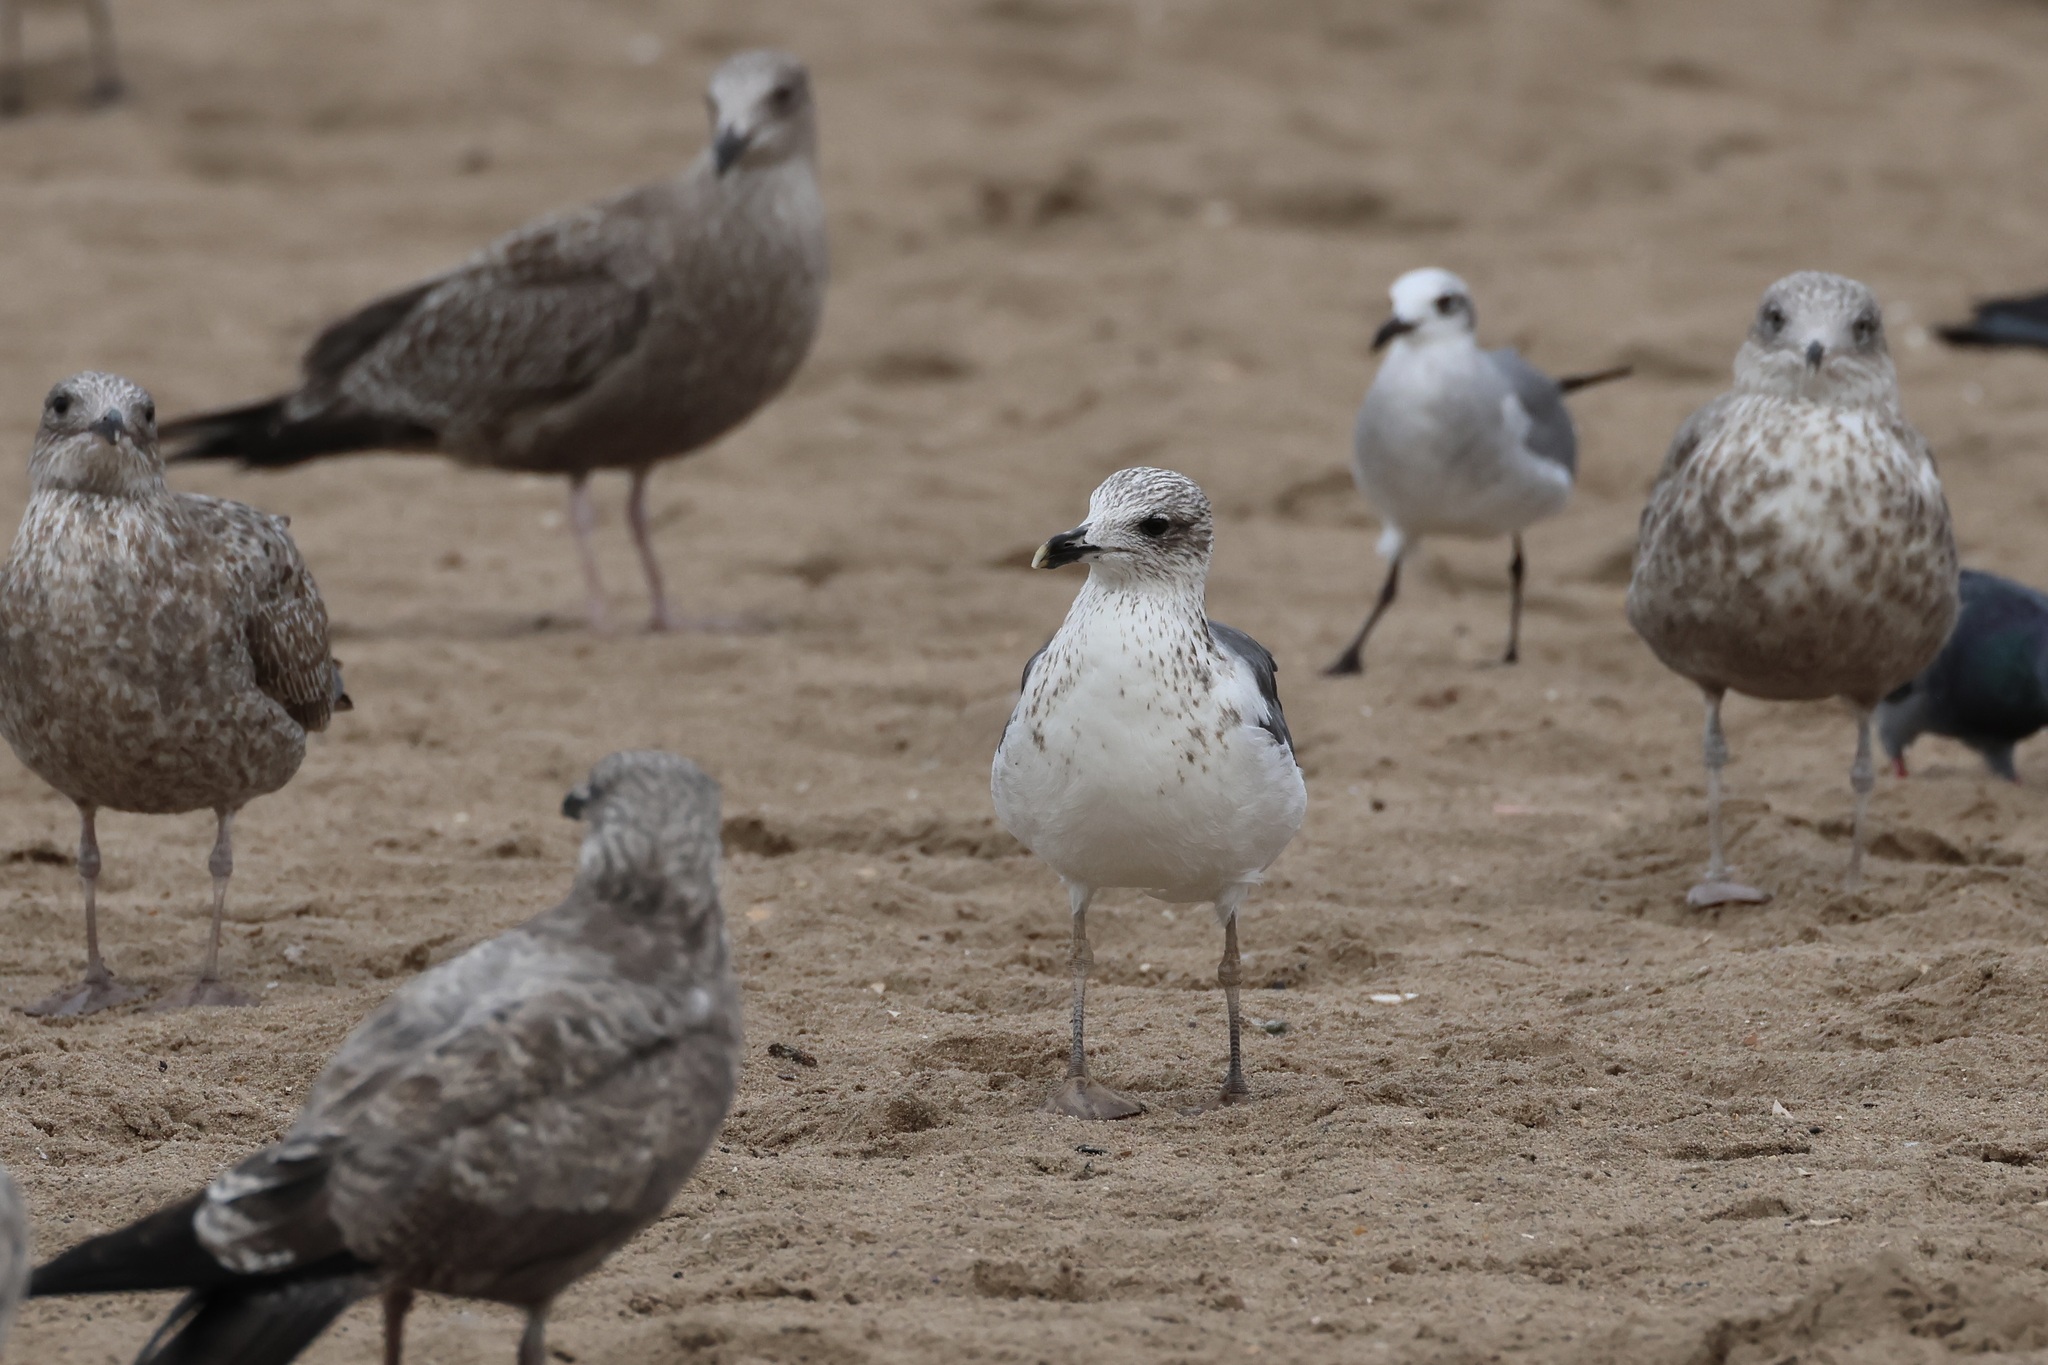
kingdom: Animalia
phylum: Chordata
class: Aves
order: Charadriiformes
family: Laridae
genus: Larus
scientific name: Larus fuscus
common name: Lesser black-backed gull
